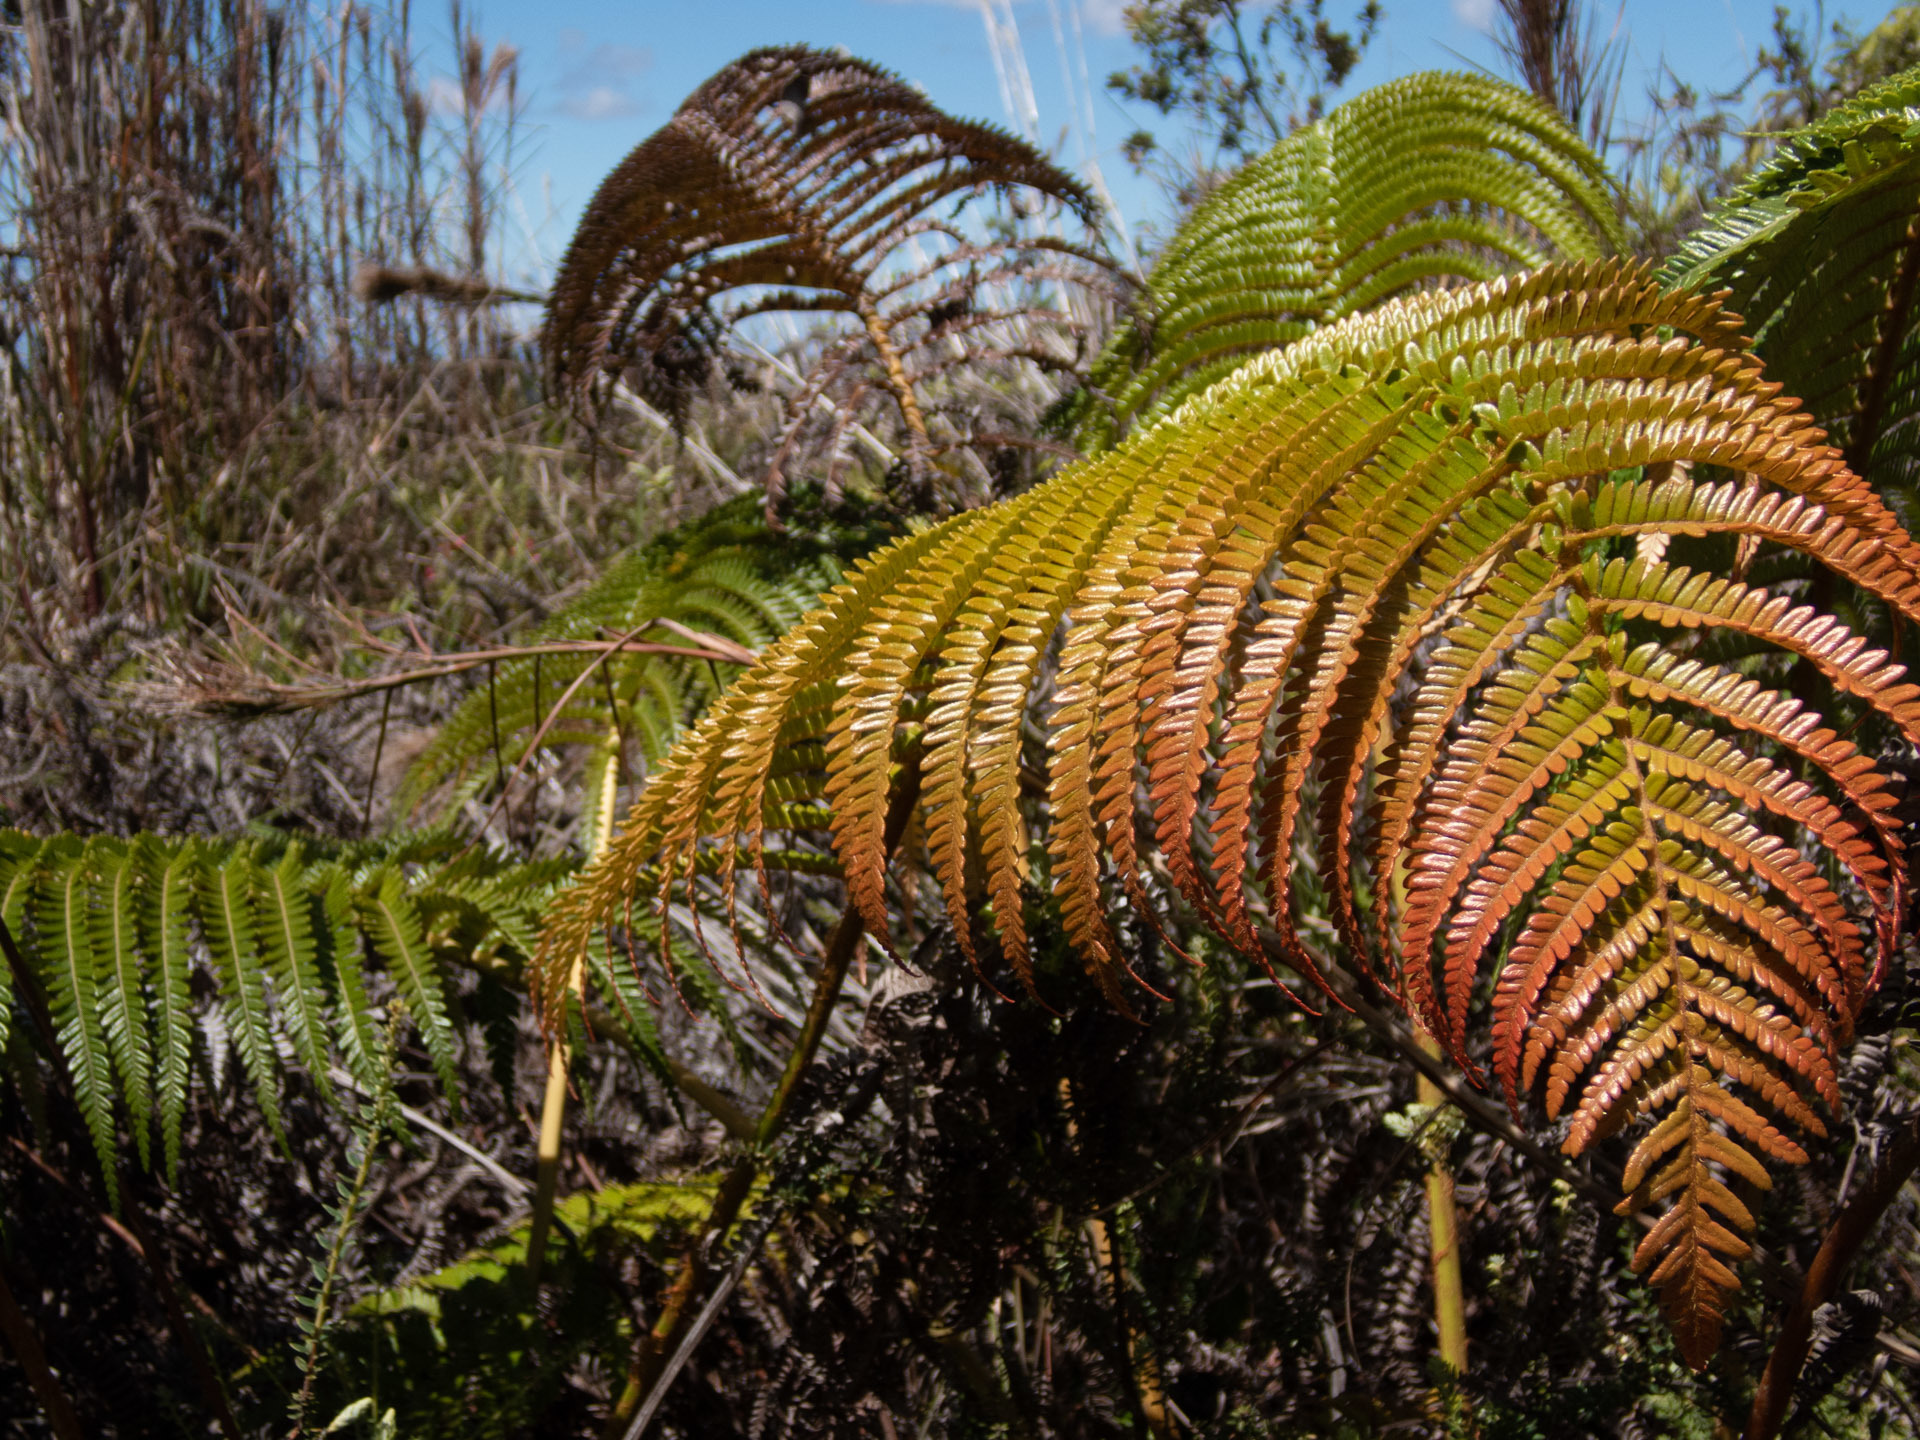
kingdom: Plantae
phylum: Tracheophyta
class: Polypodiopsida
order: Polypodiales
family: Blechnaceae
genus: Sadleria
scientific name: Sadleria cyatheoides
